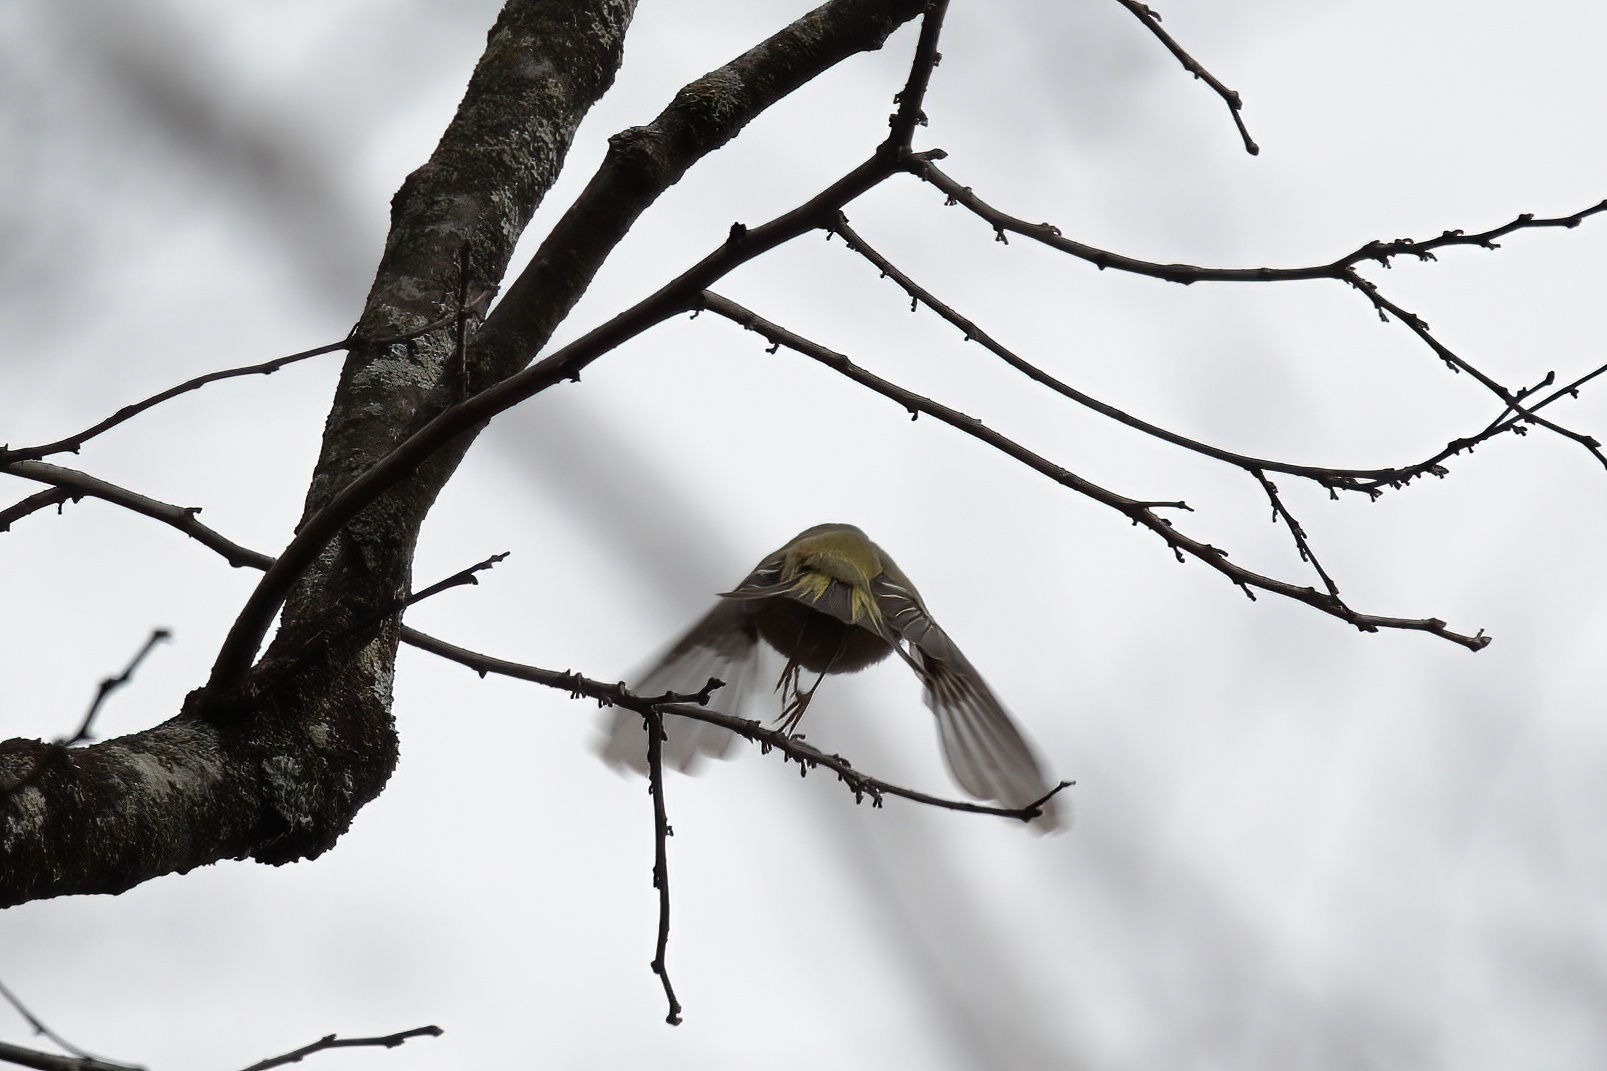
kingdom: Animalia
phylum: Chordata
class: Aves
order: Passeriformes
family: Regulidae
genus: Regulus
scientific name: Regulus calendula
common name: Ruby-crowned kinglet
